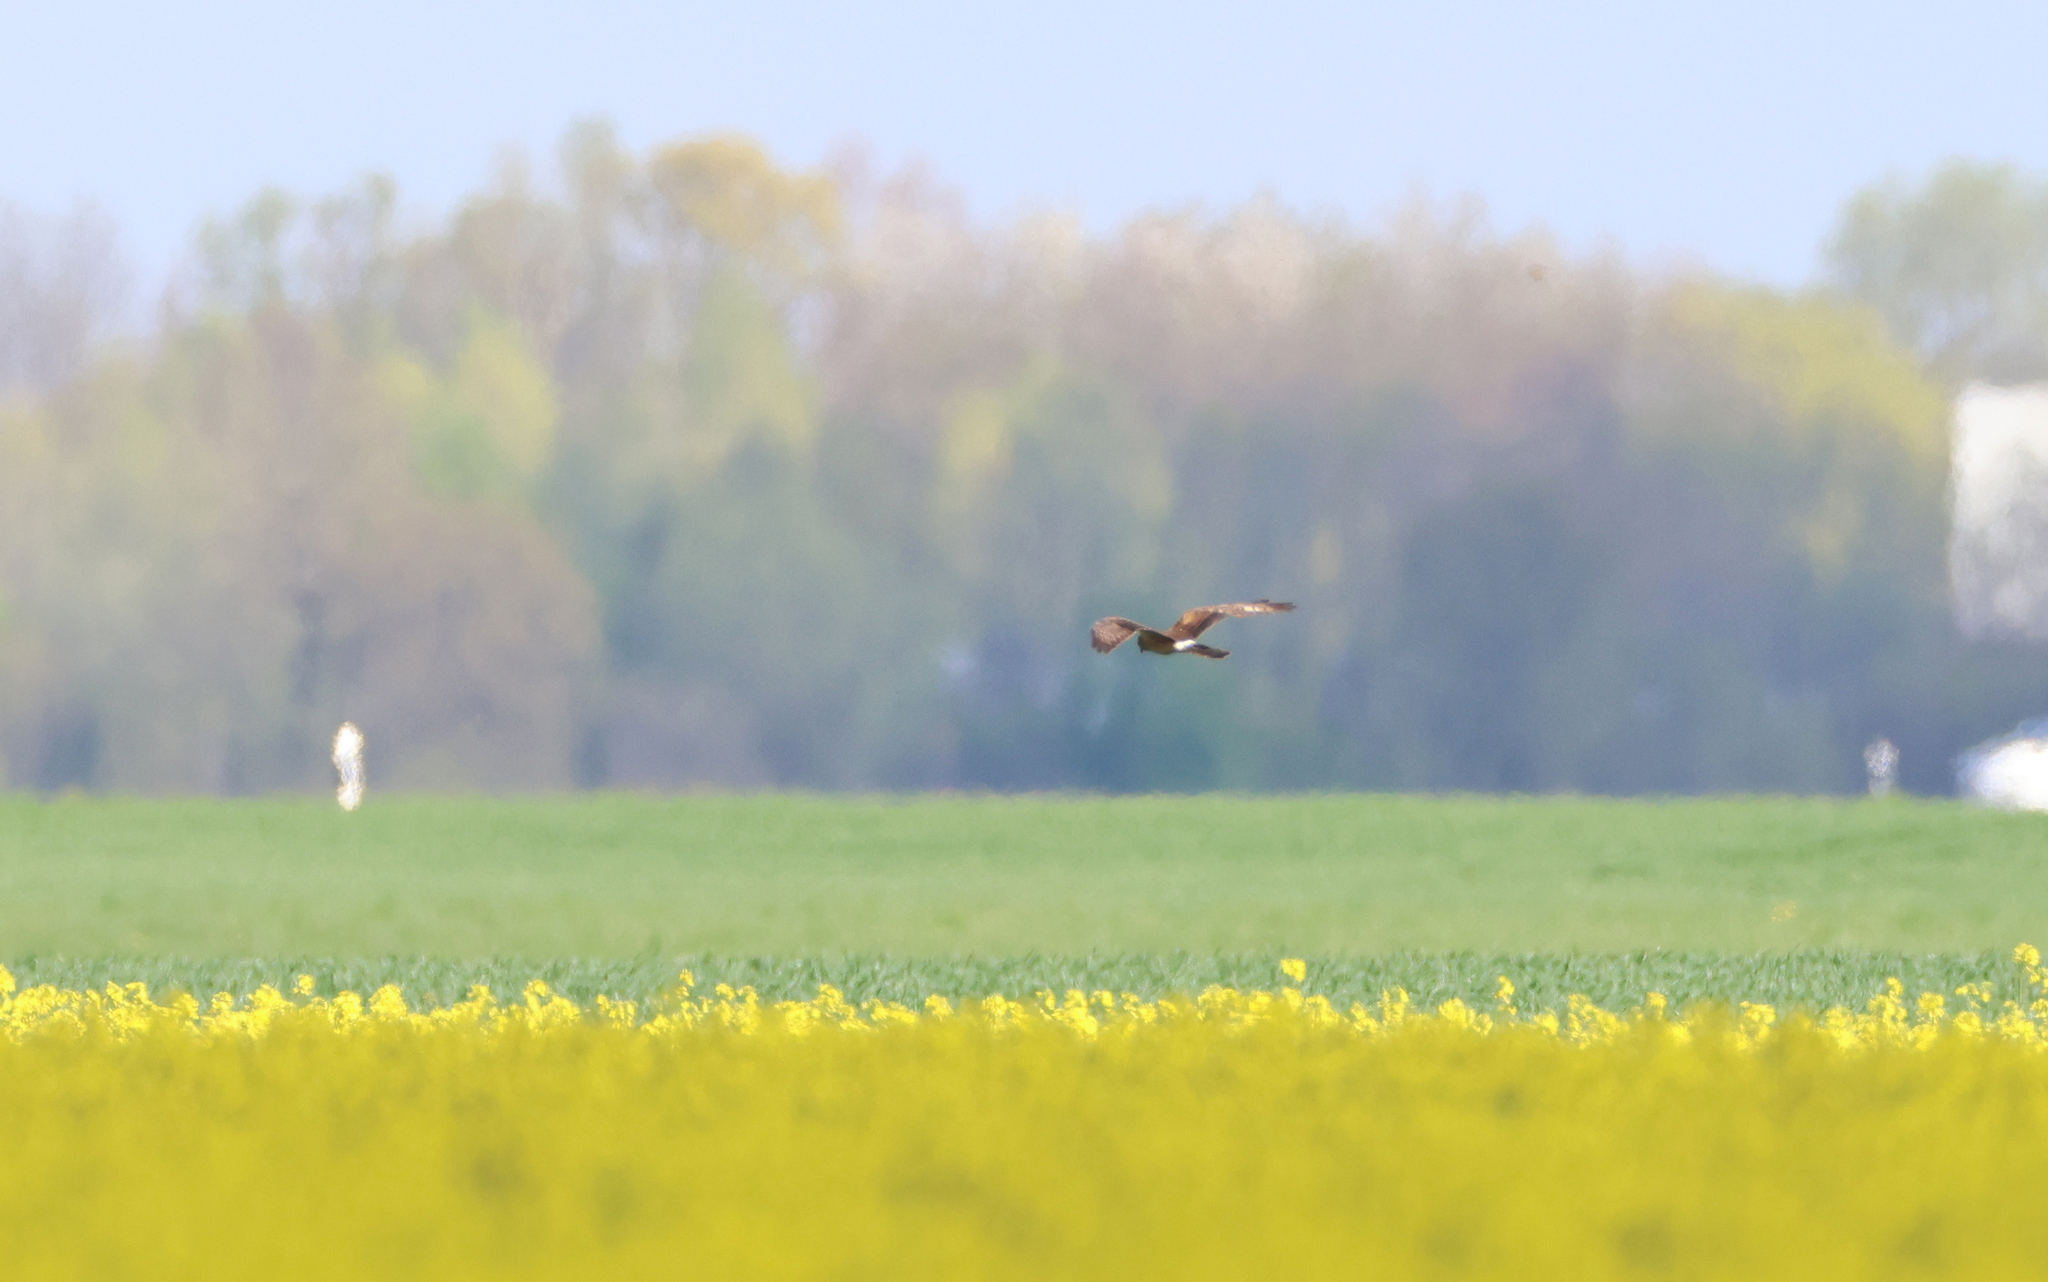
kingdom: Animalia
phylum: Chordata
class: Aves
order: Accipitriformes
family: Accipitridae
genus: Circus
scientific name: Circus pygargus
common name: Montagu's harrier
